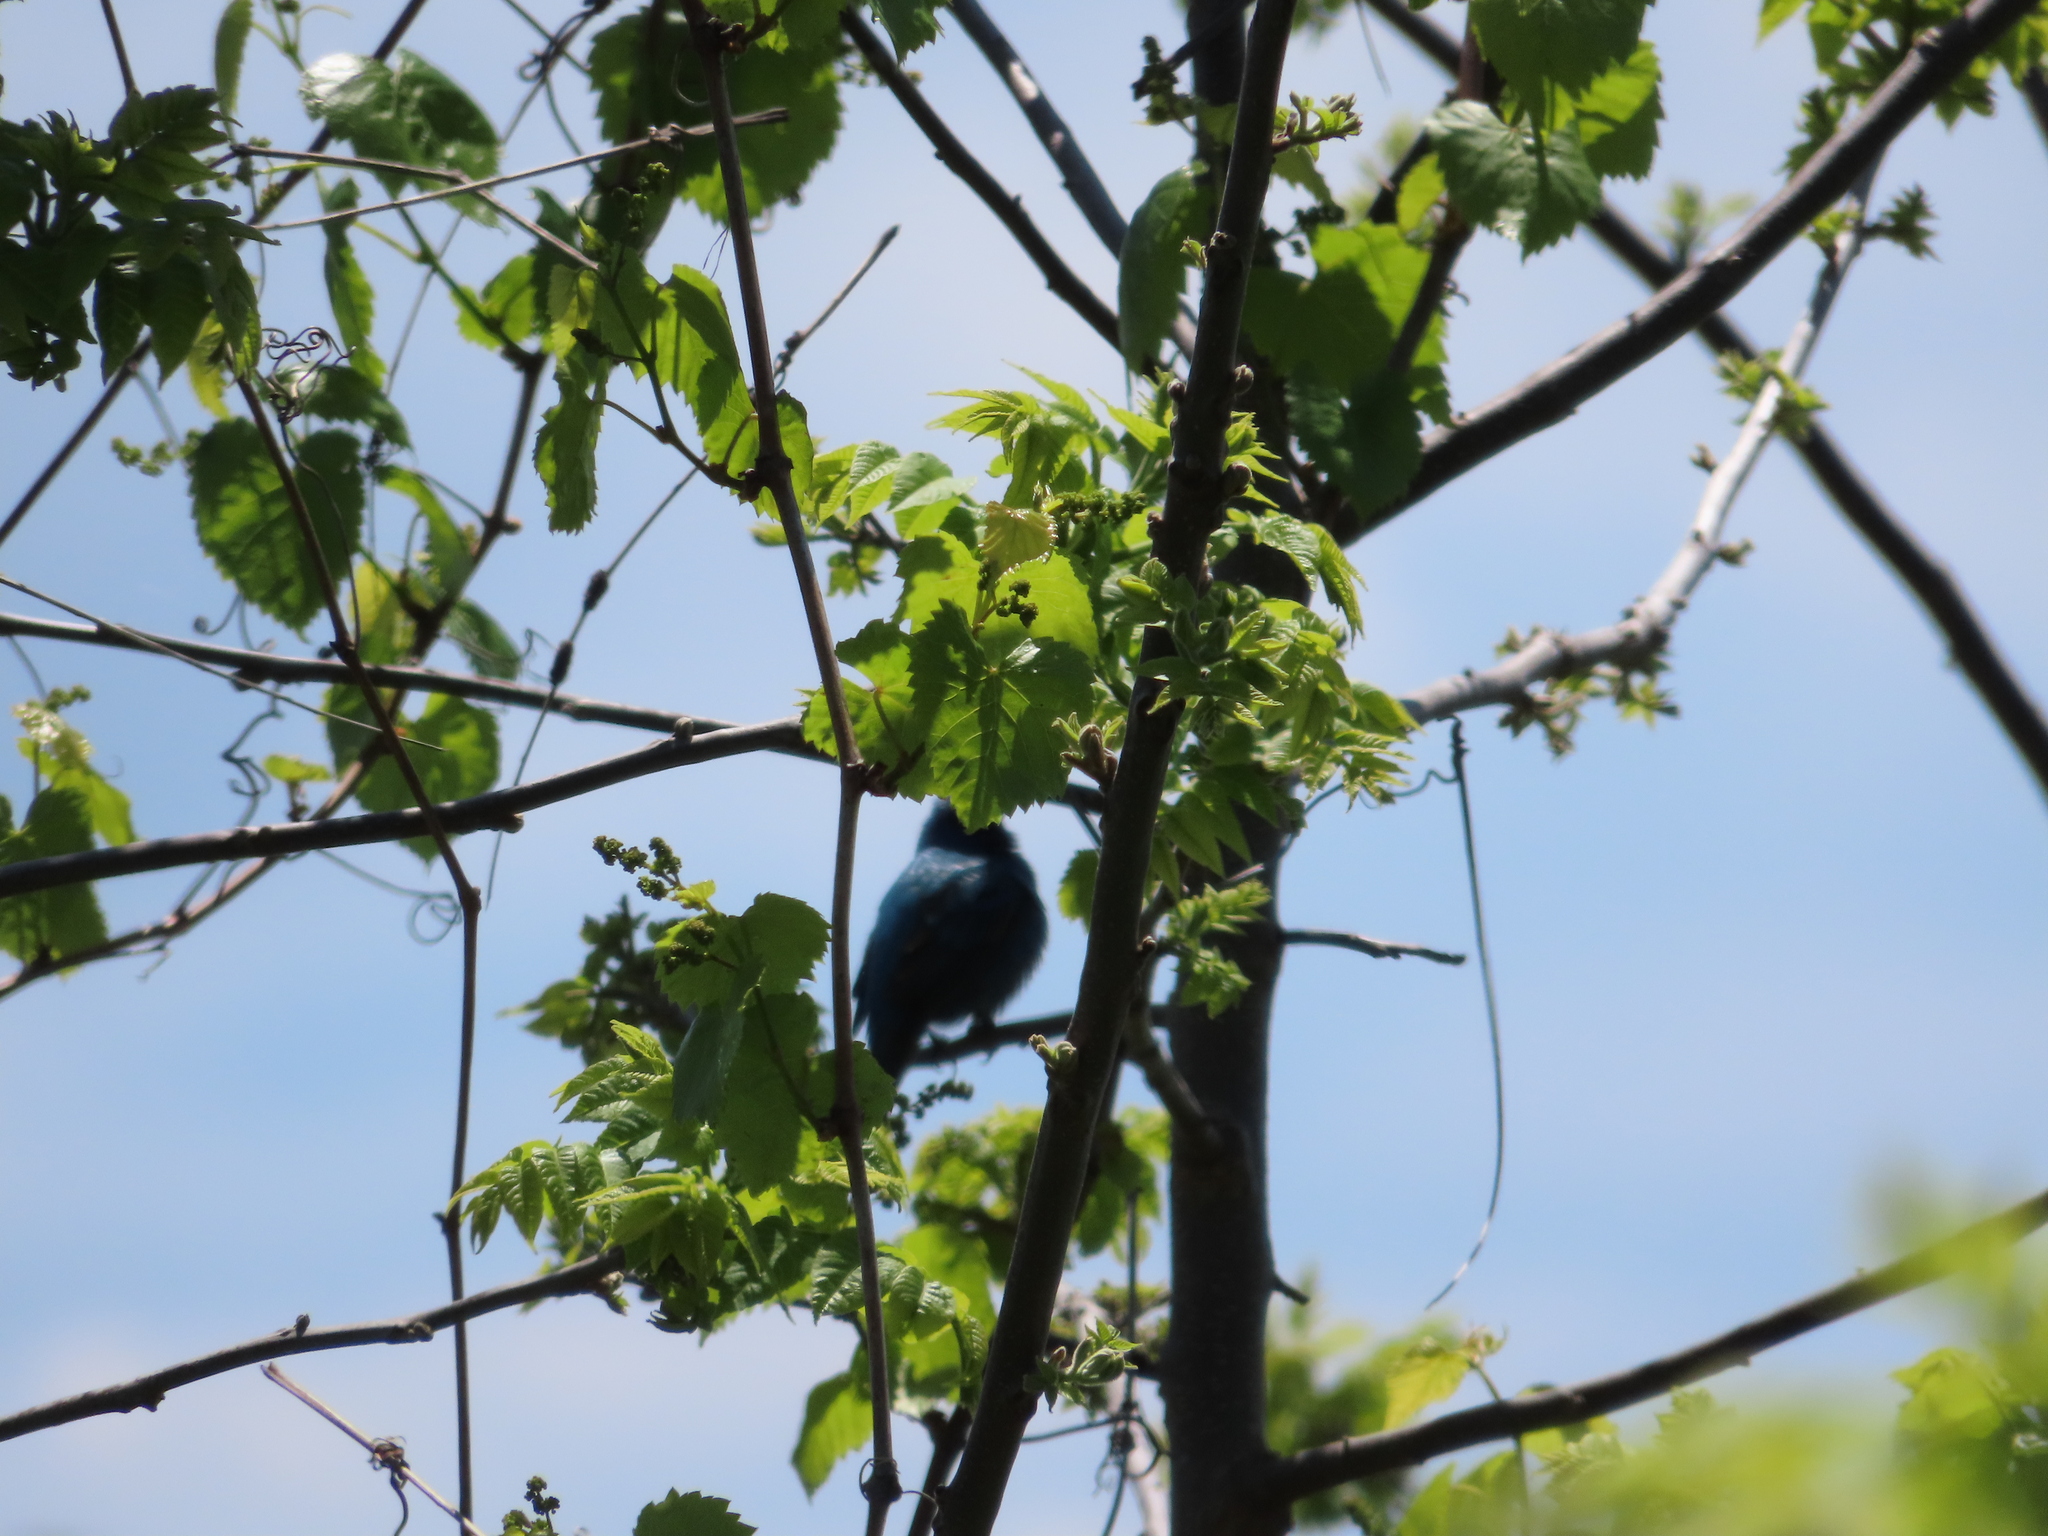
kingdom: Animalia
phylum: Chordata
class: Aves
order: Passeriformes
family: Cardinalidae
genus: Passerina
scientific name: Passerina cyanea
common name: Indigo bunting
